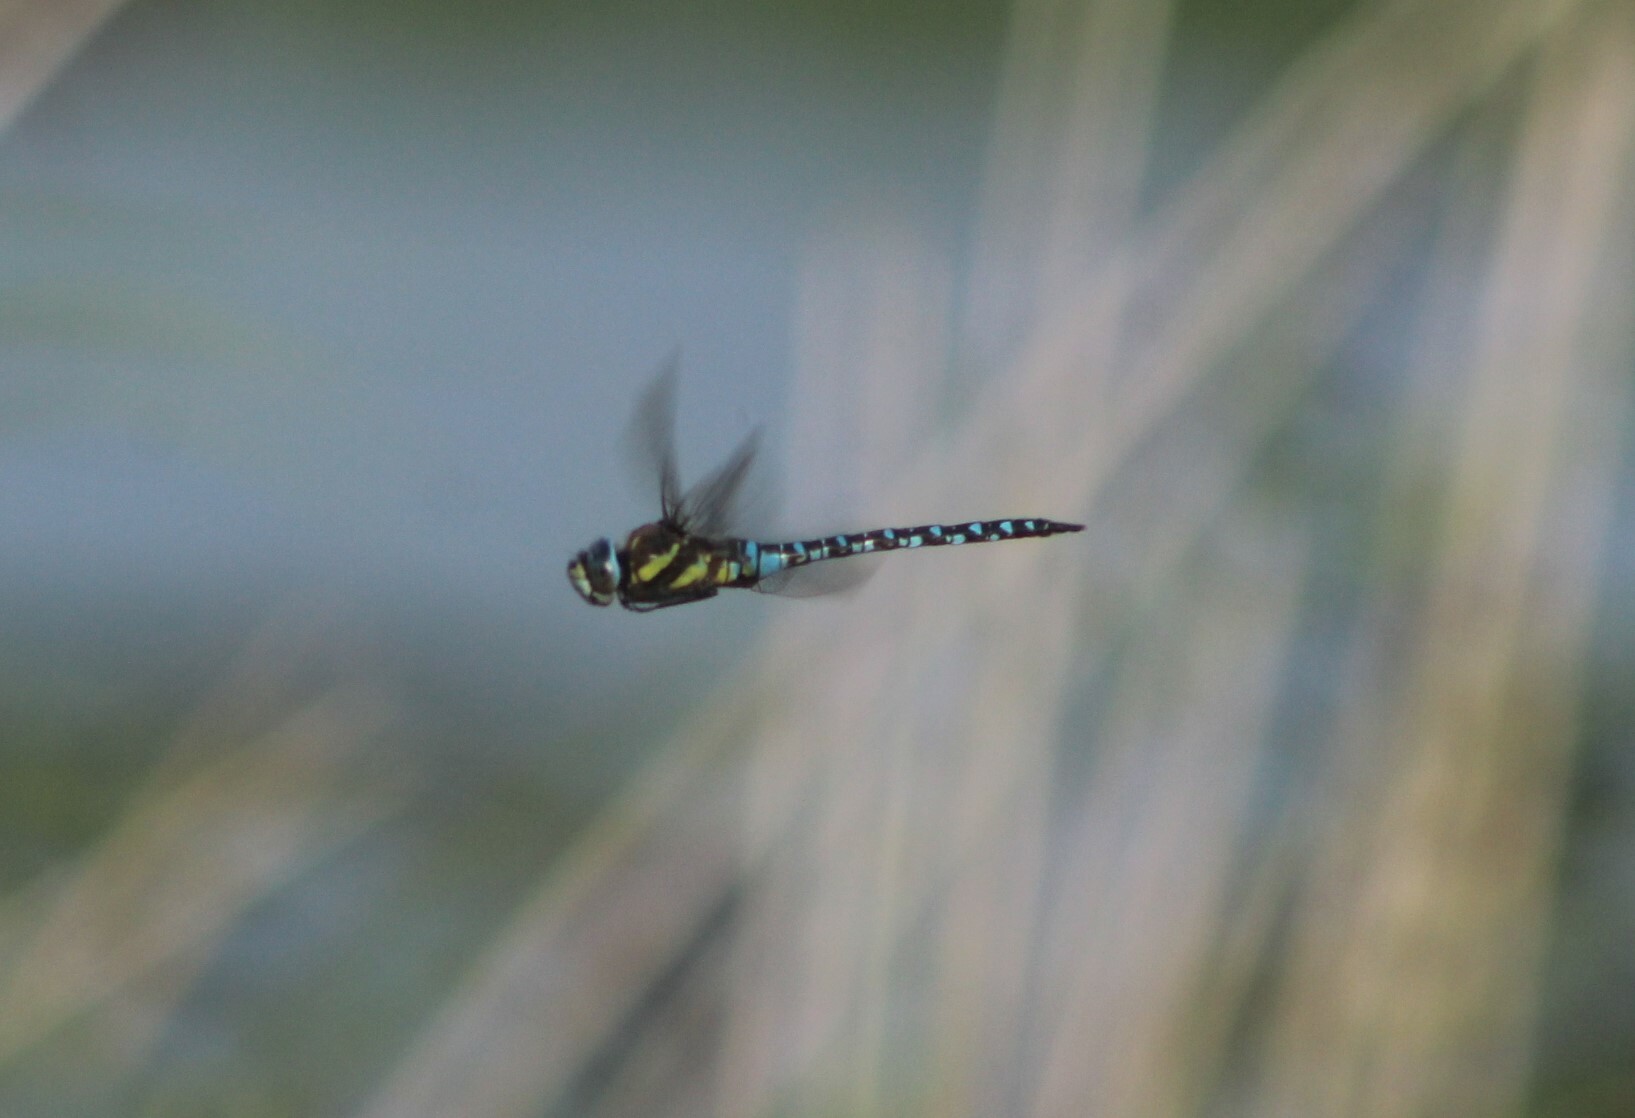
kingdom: Animalia
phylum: Arthropoda
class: Insecta
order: Odonata
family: Aeshnidae
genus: Aeshna
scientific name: Aeshna mixta
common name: Migrant hawker
